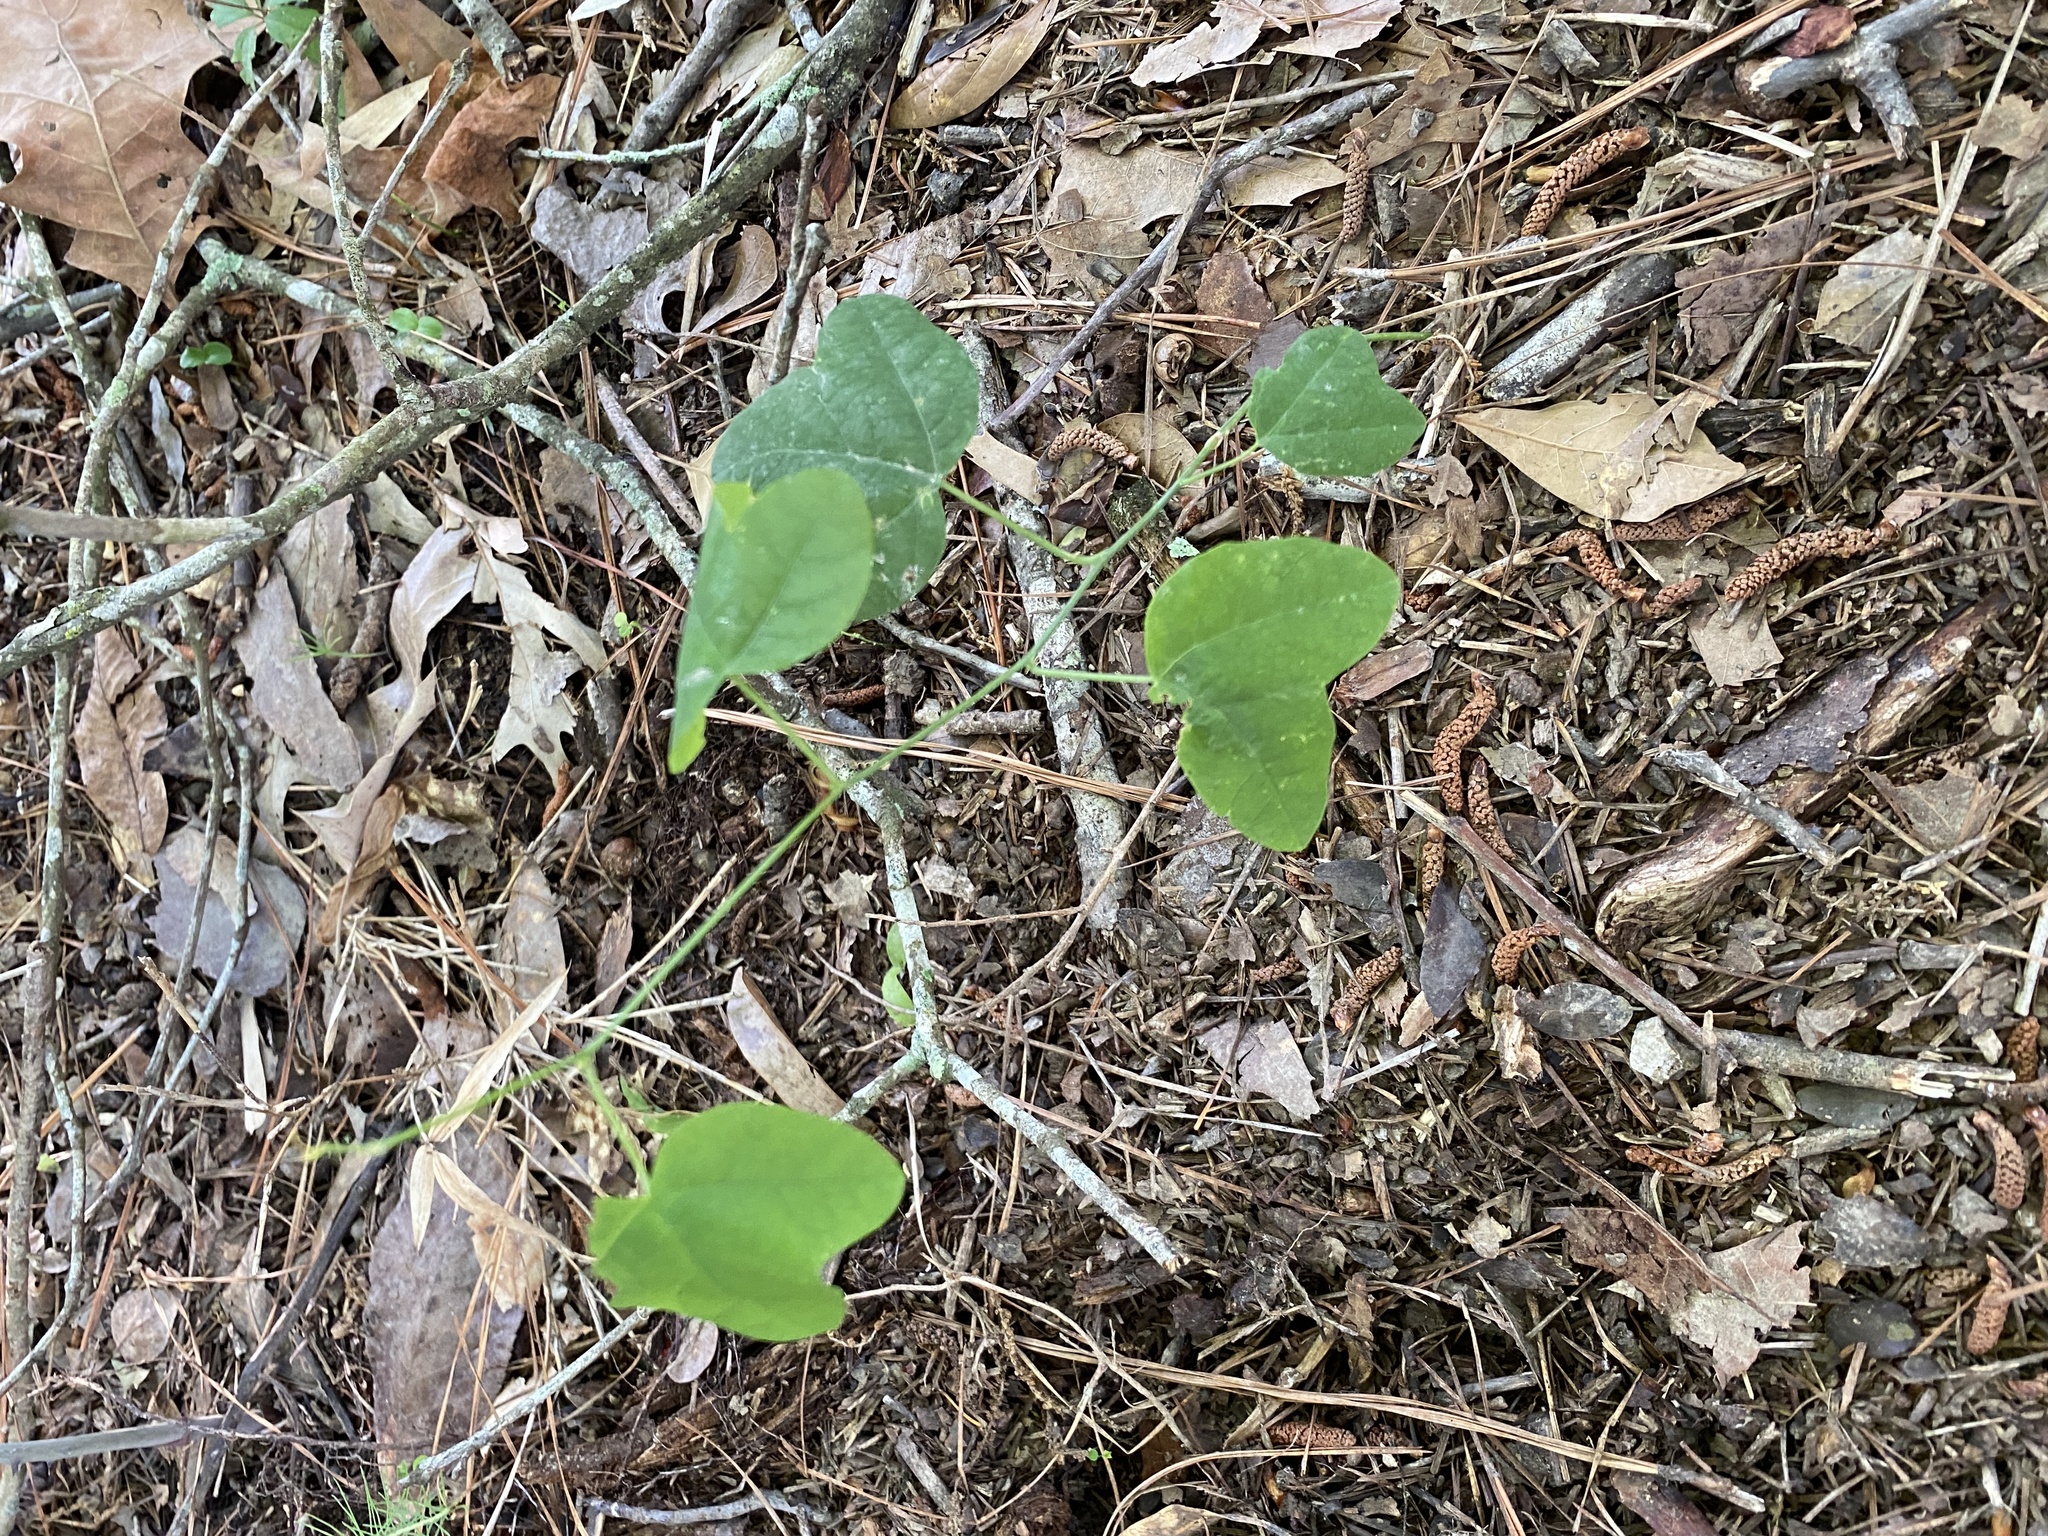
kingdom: Plantae
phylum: Tracheophyta
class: Magnoliopsida
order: Malpighiales
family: Passifloraceae
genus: Passiflora
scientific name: Passiflora lutea
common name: Yellow passionflower
